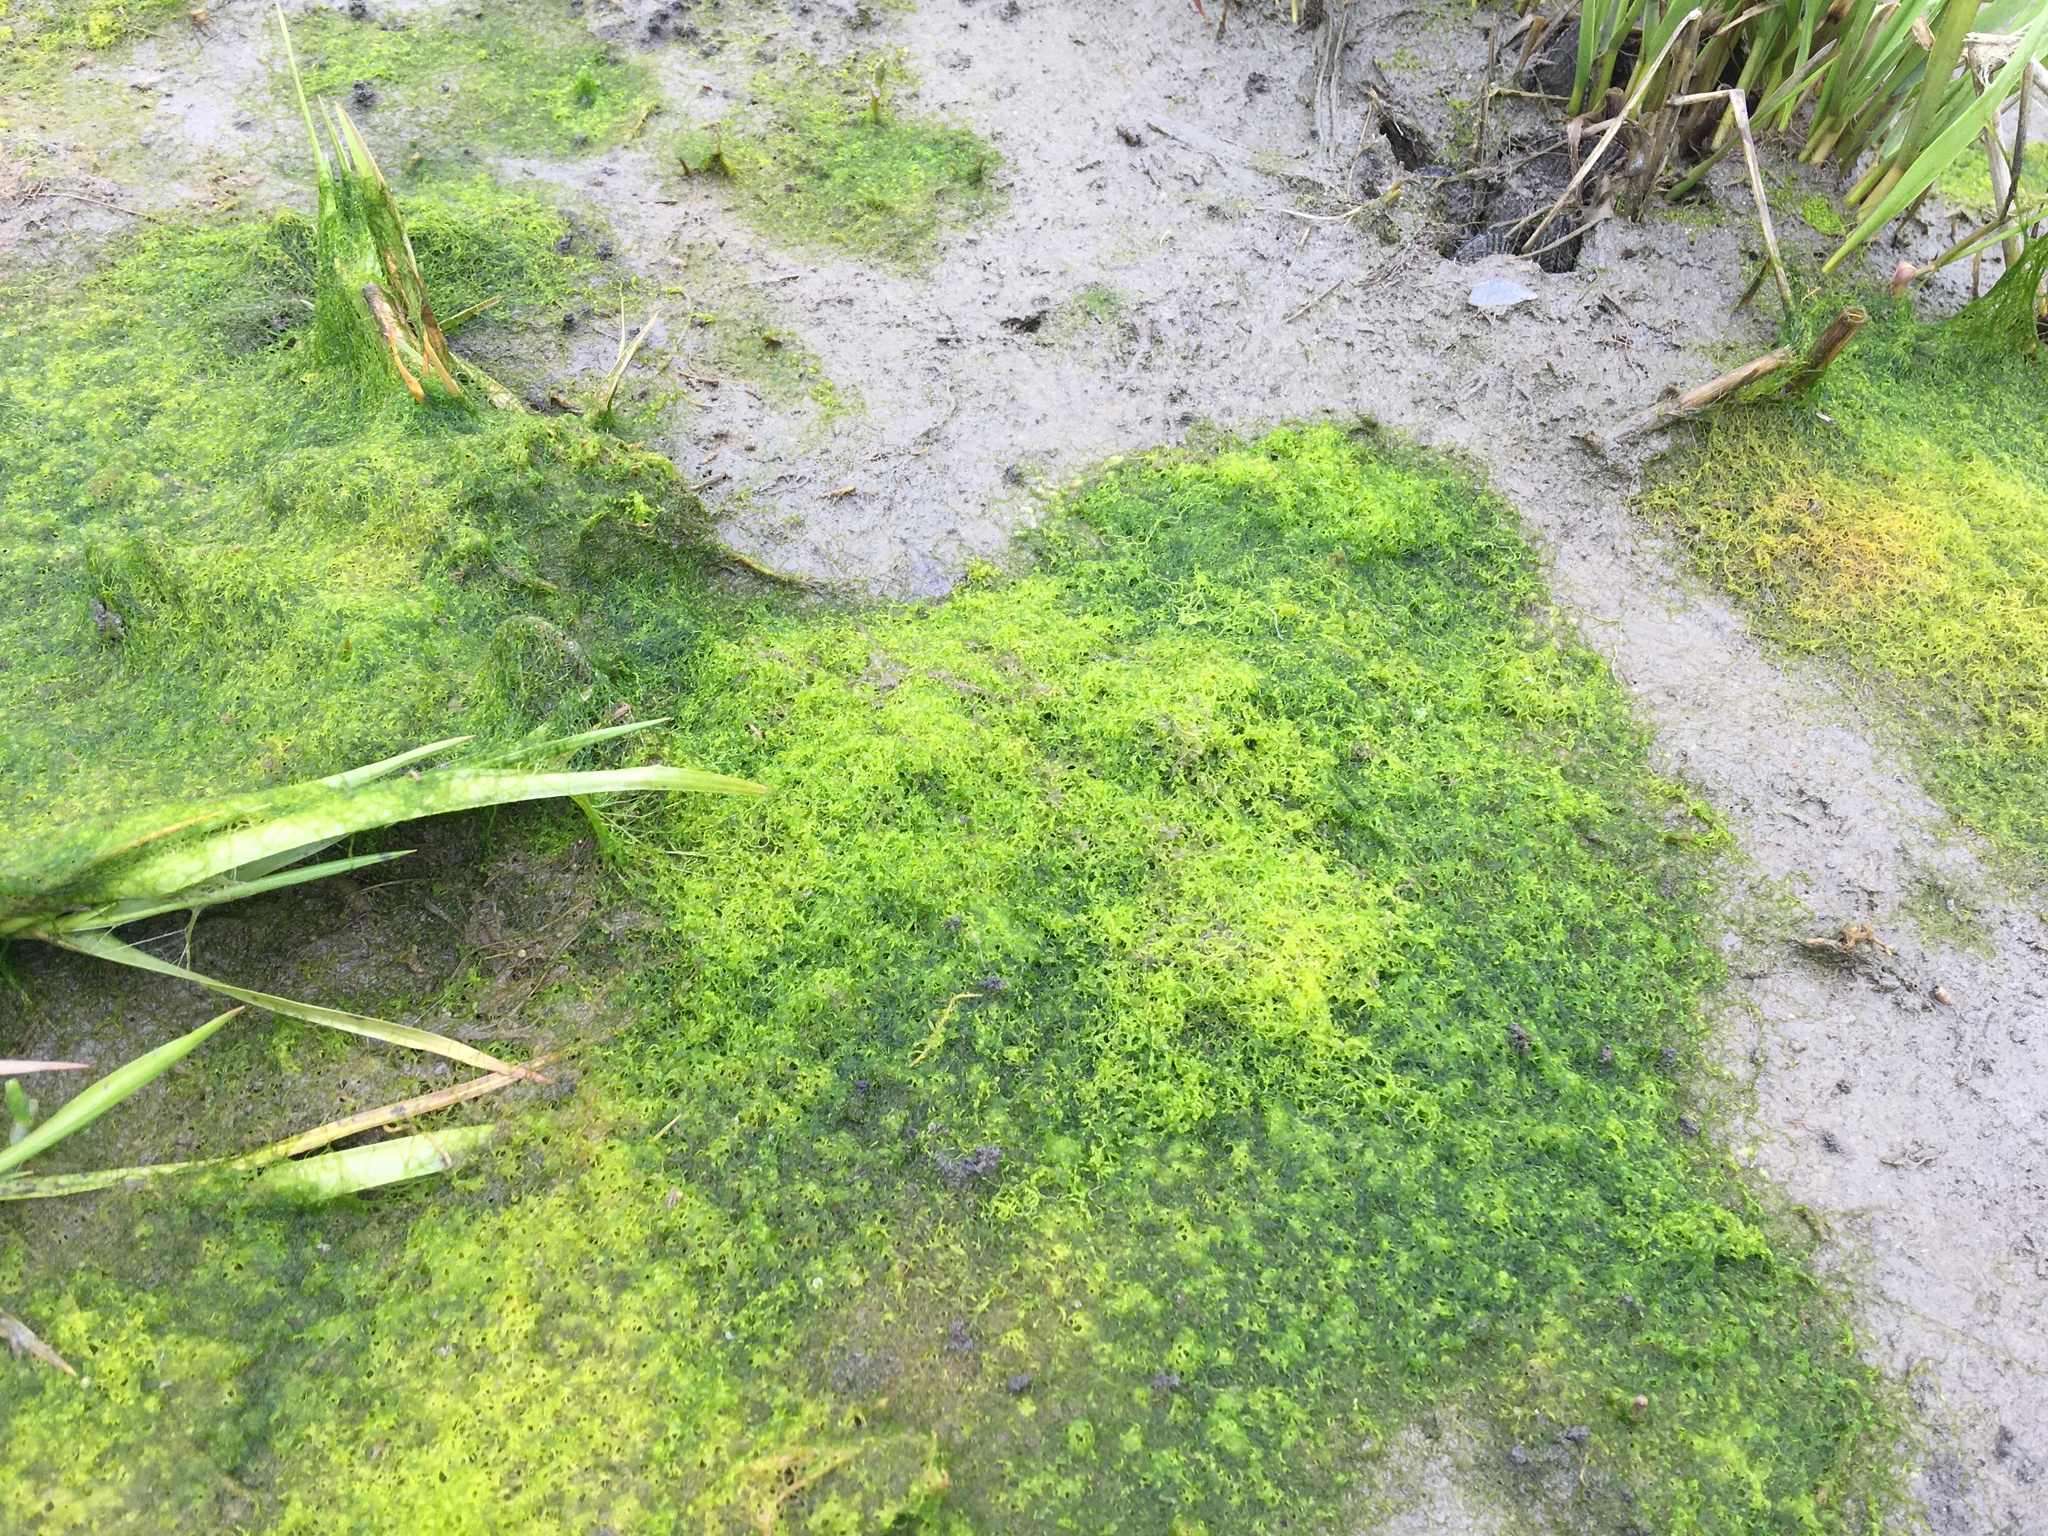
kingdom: Plantae
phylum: Chlorophyta
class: Ulvophyceae
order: Ulvales
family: Ulvaceae
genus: Ulva
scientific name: Ulva intestinalis
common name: Gut weed
